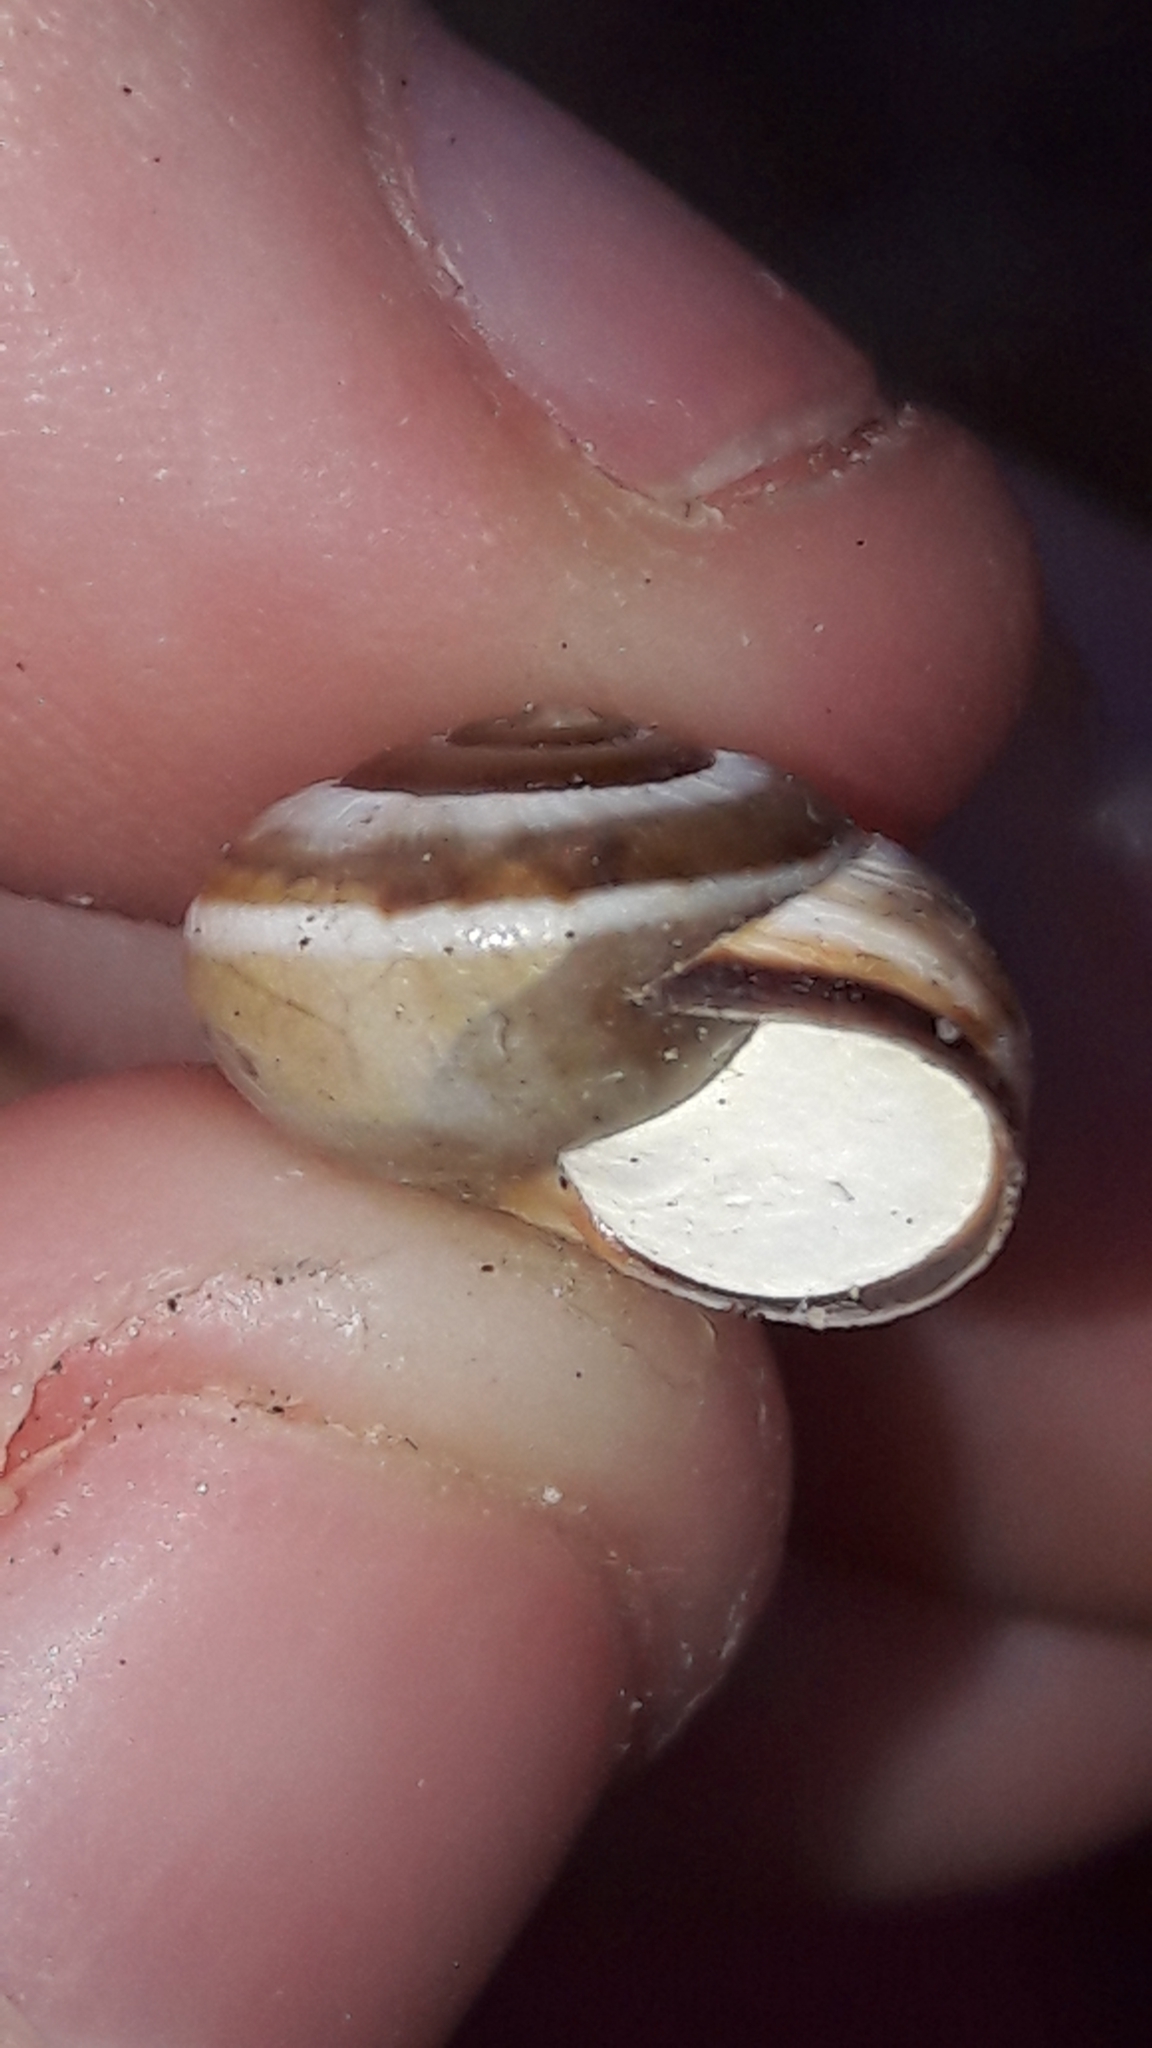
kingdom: Animalia
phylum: Mollusca
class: Gastropoda
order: Stylommatophora
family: Hygromiidae
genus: Monacha
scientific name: Monacha syriaca
